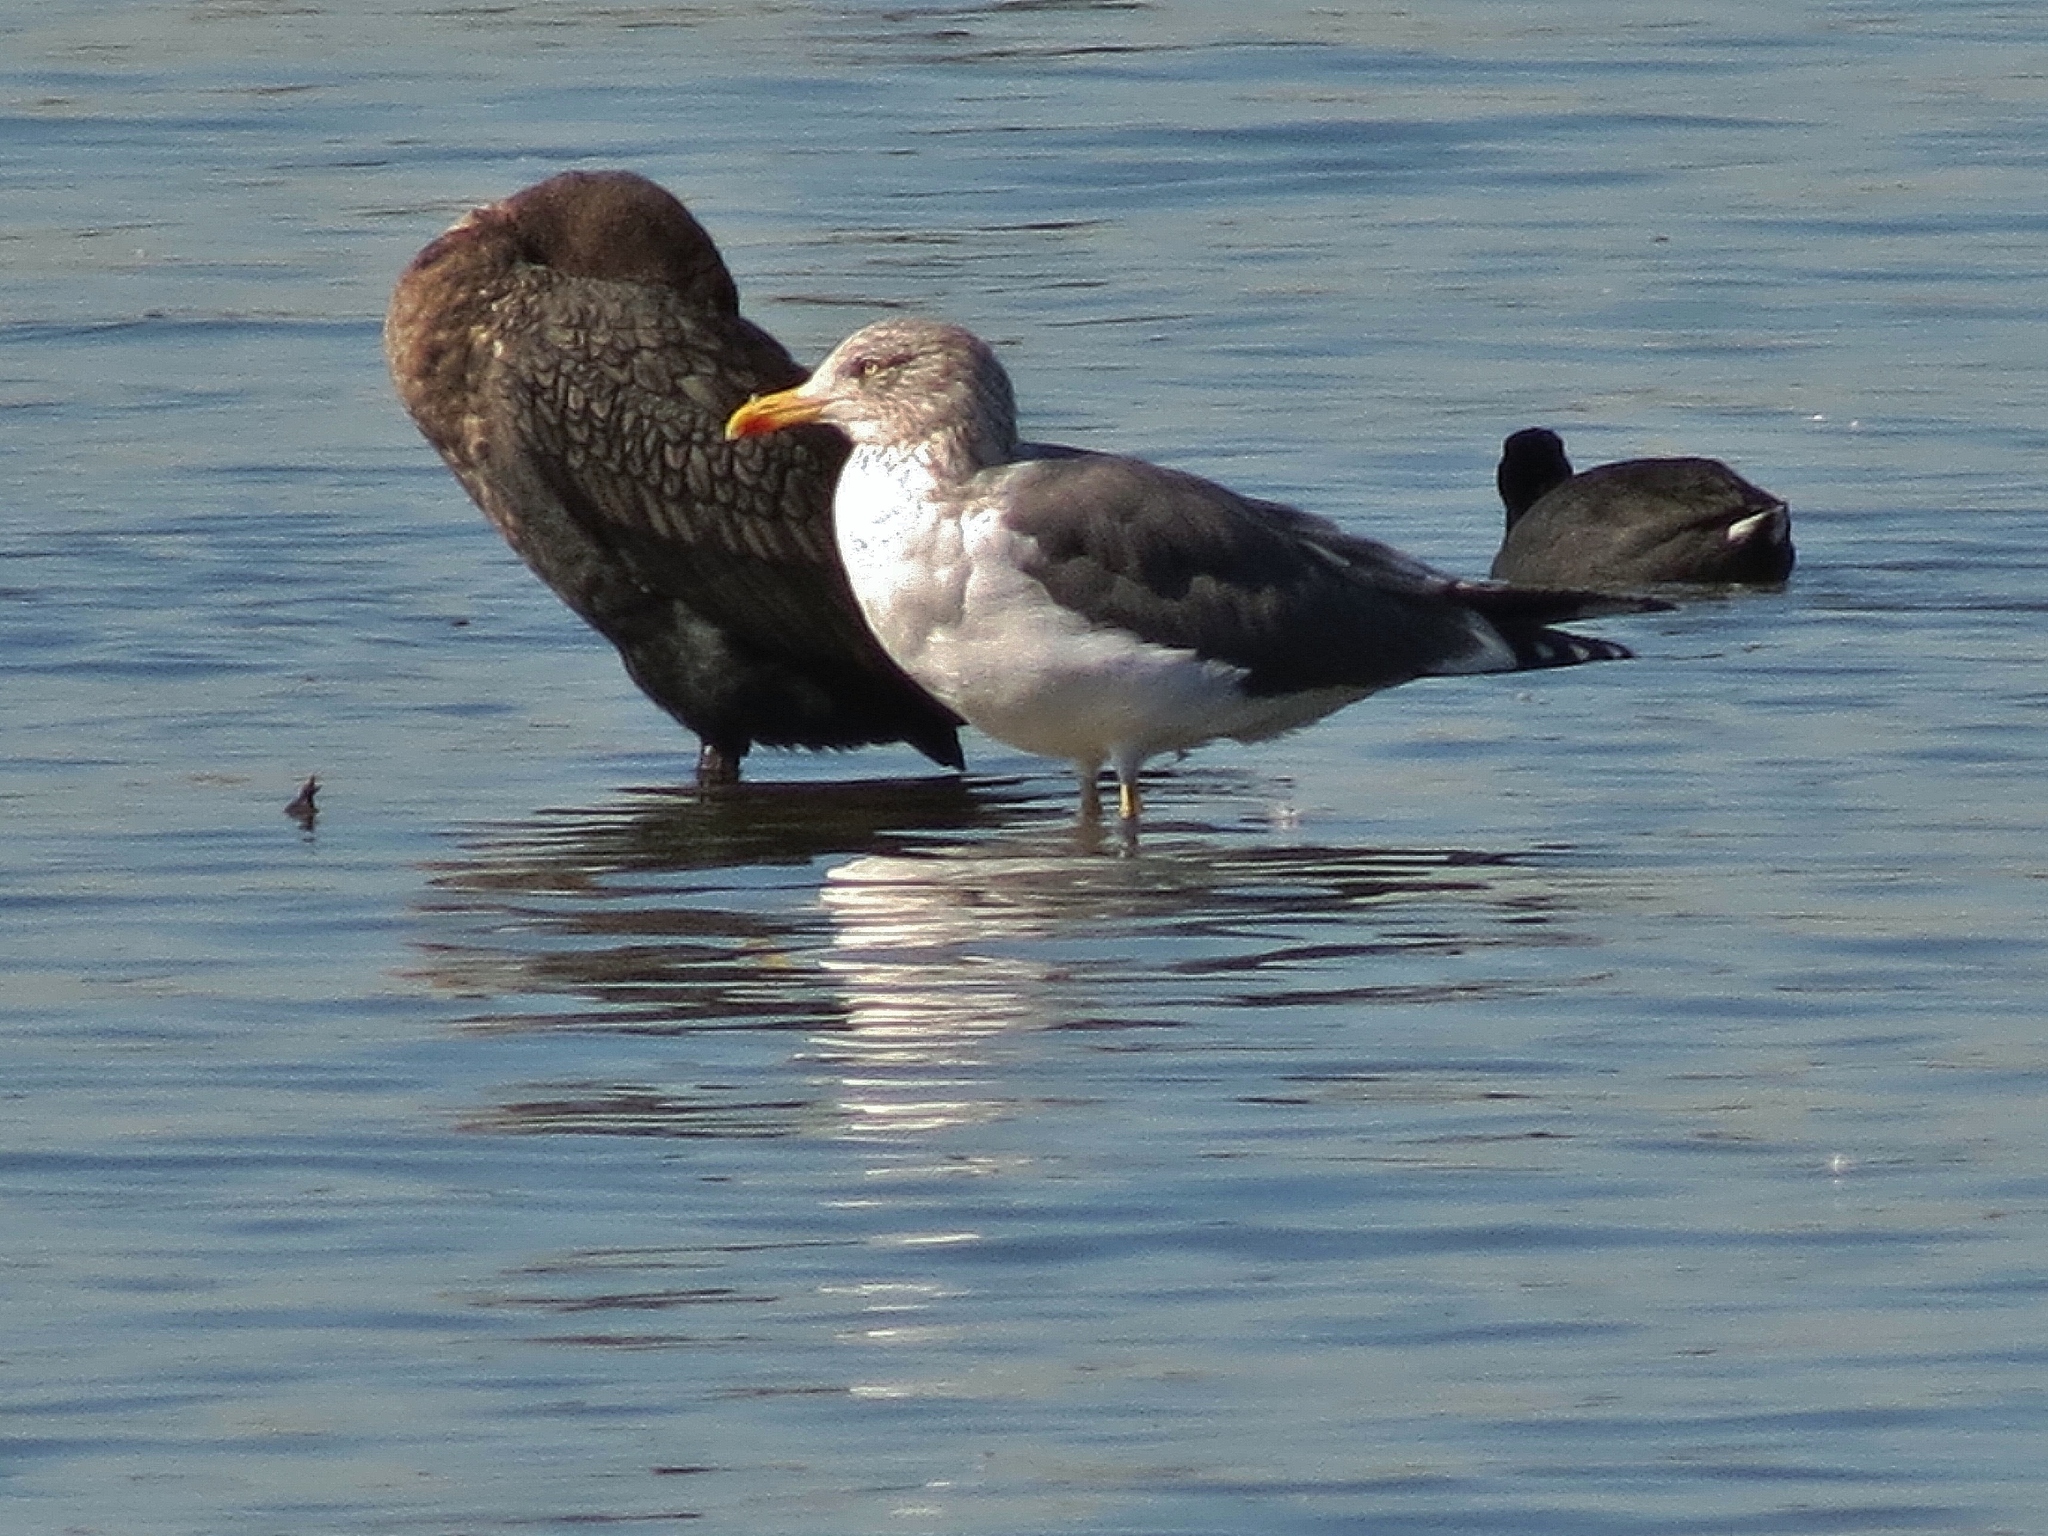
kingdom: Animalia
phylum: Chordata
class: Aves
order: Charadriiformes
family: Laridae
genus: Larus
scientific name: Larus fuscus
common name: Lesser black-backed gull
